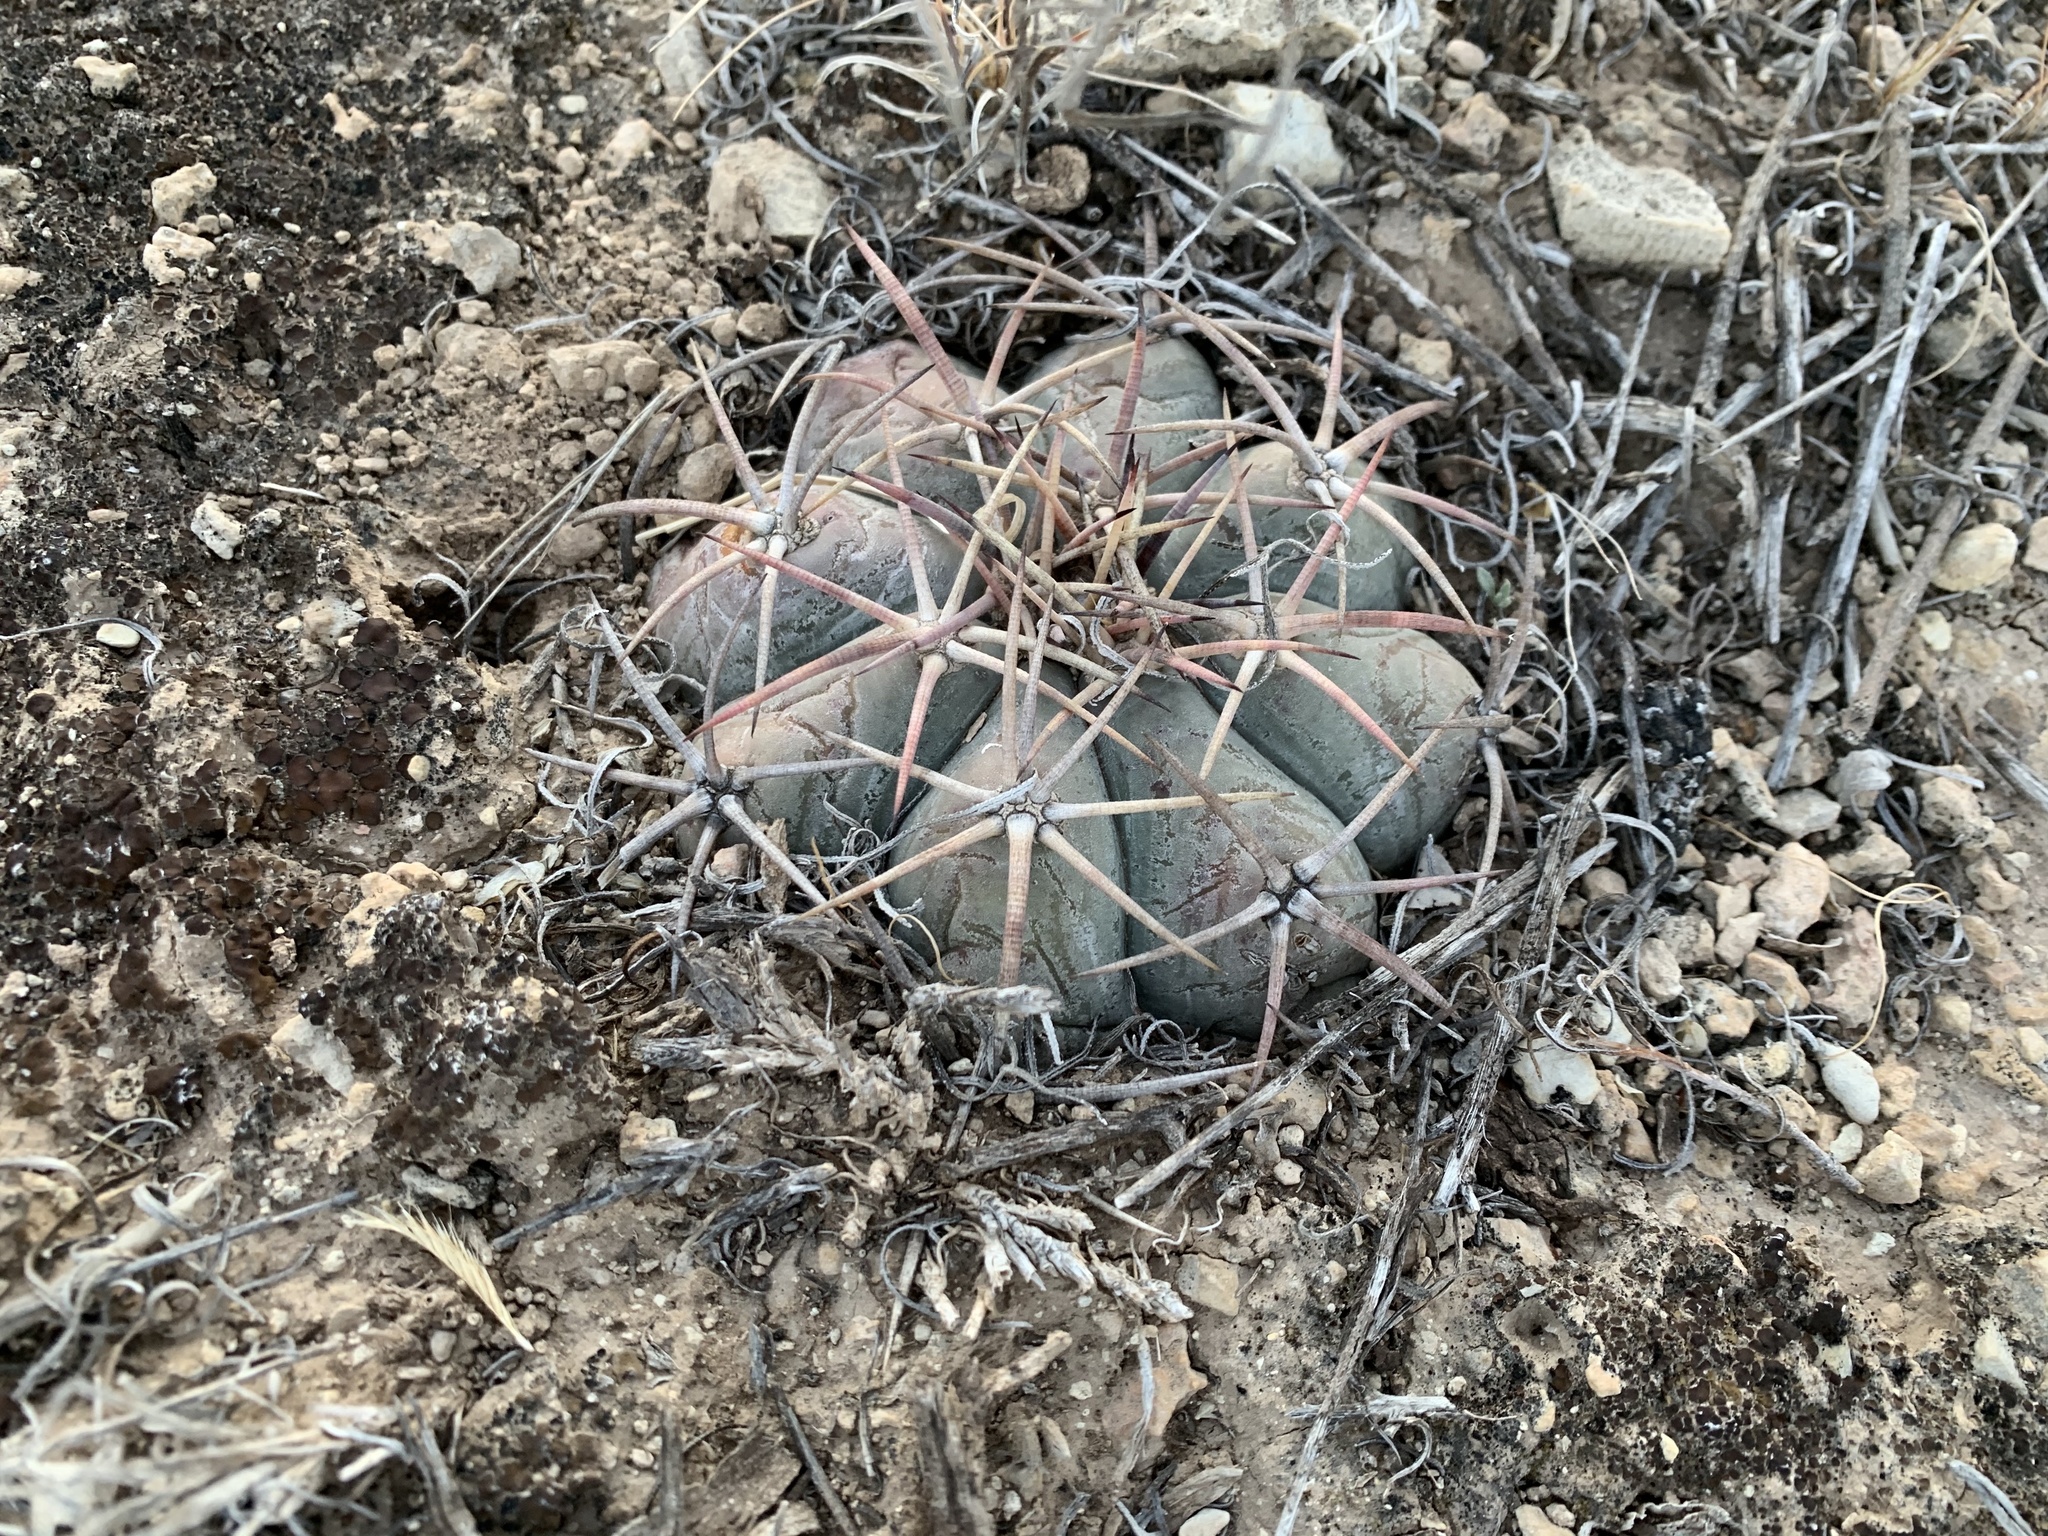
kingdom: Plantae
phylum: Tracheophyta
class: Magnoliopsida
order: Caryophyllales
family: Cactaceae
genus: Echinocactus
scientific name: Echinocactus horizonthalonius
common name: Devilshead
